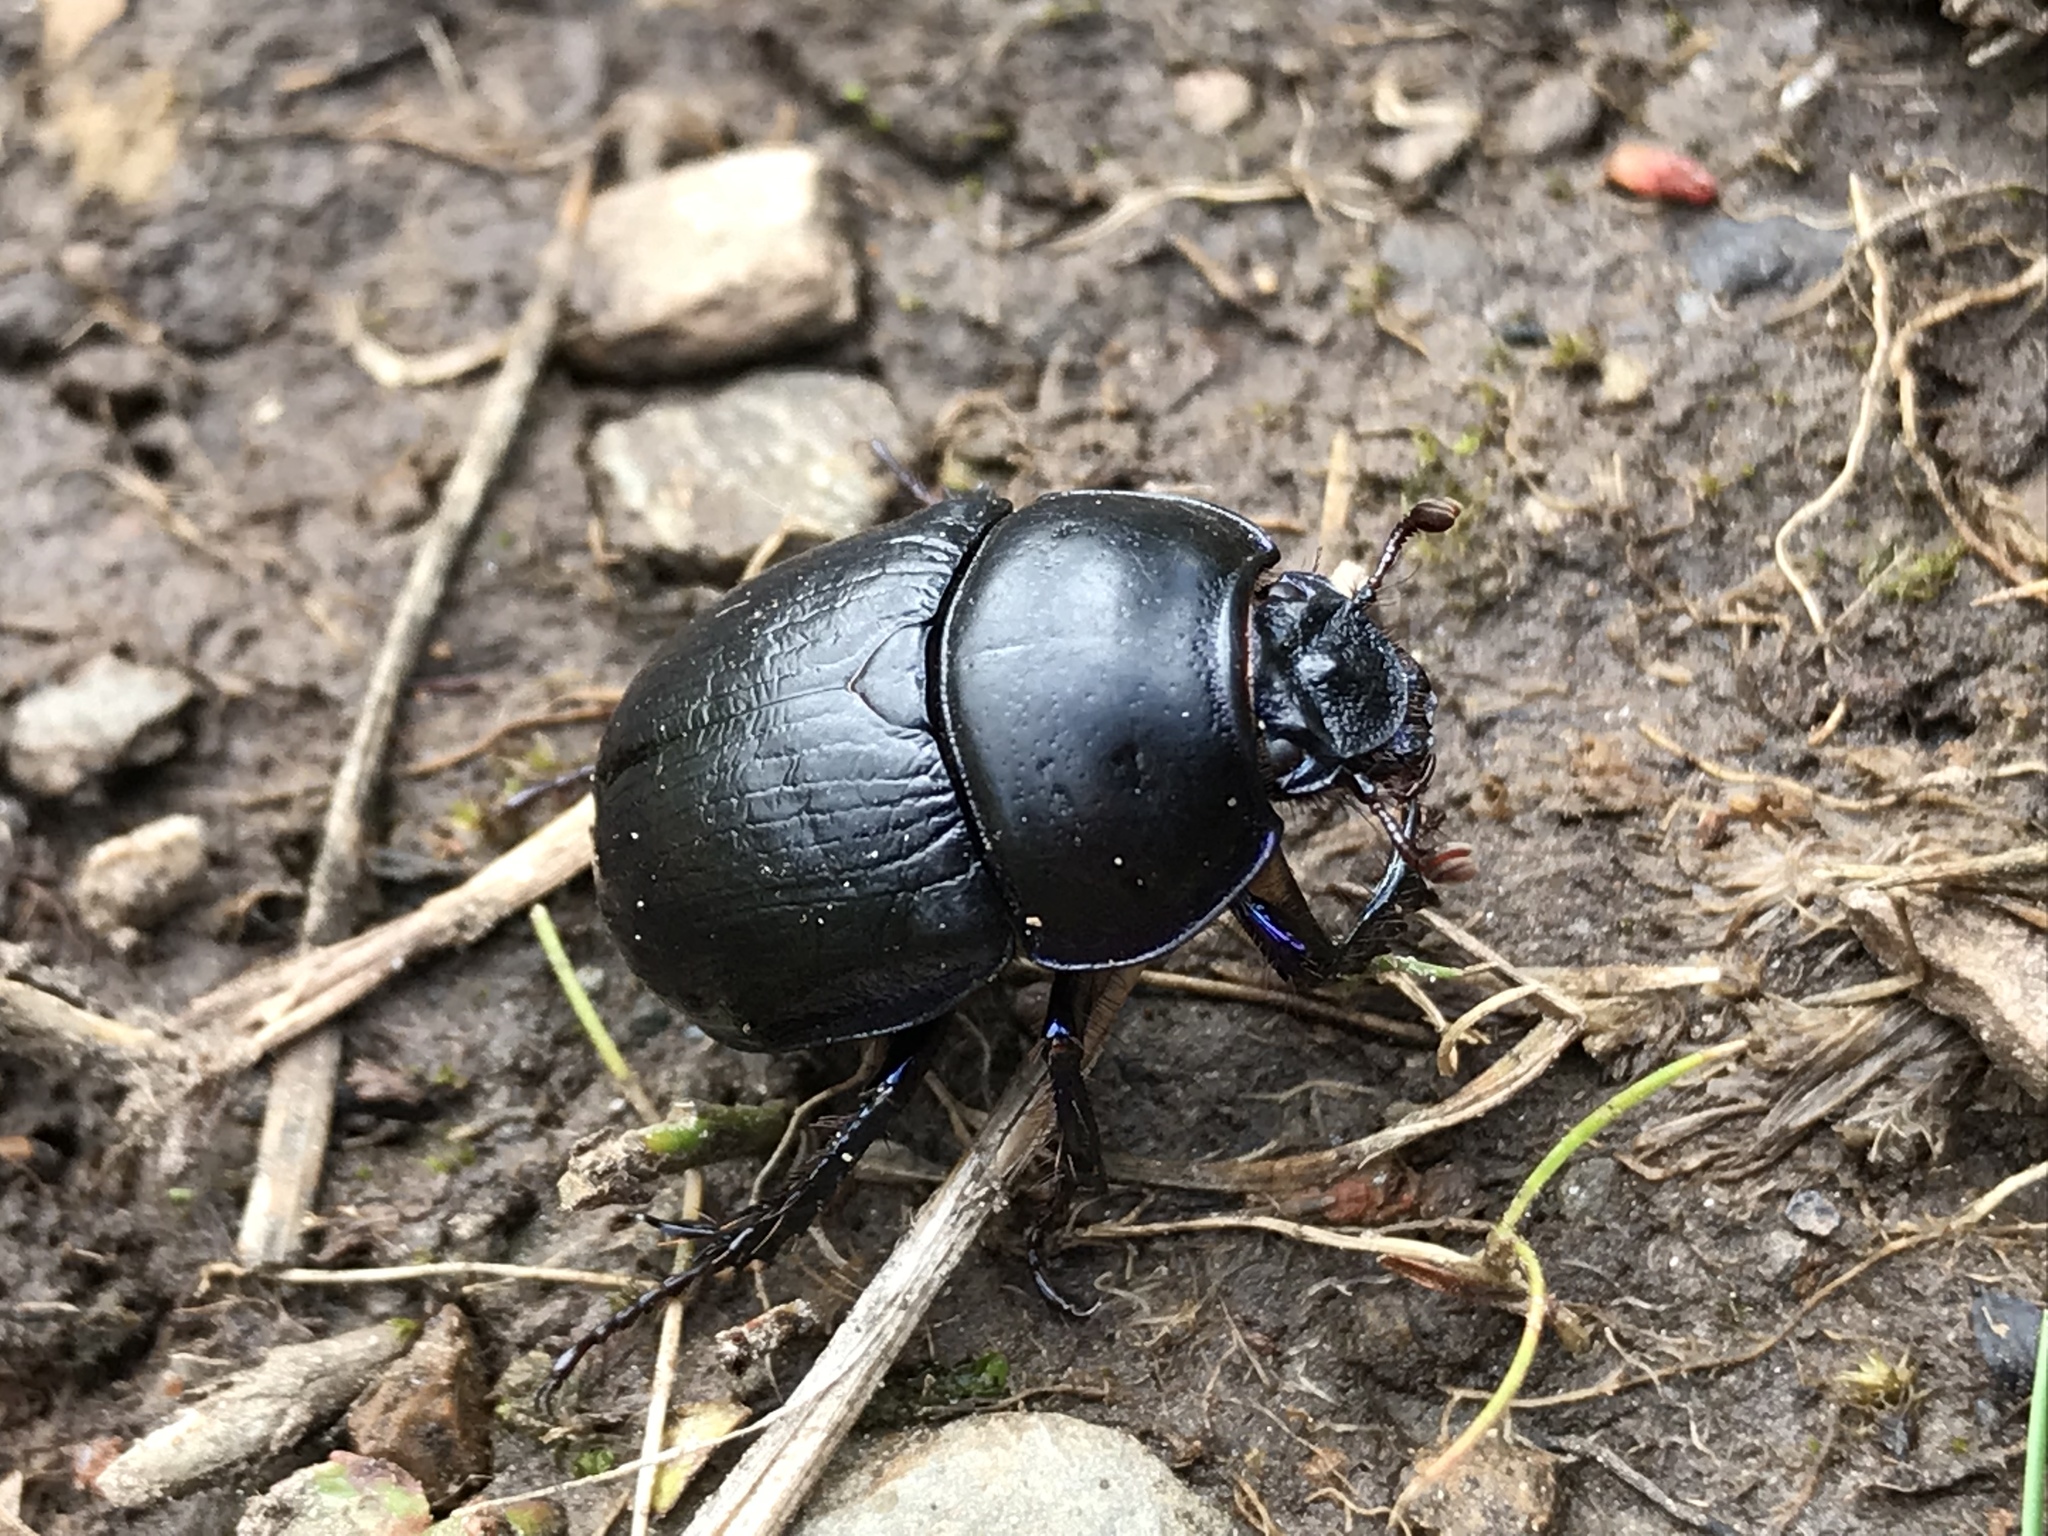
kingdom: Animalia
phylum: Arthropoda
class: Insecta
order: Coleoptera
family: Geotrupidae
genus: Anoplotrupes
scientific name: Anoplotrupes stercorosus
